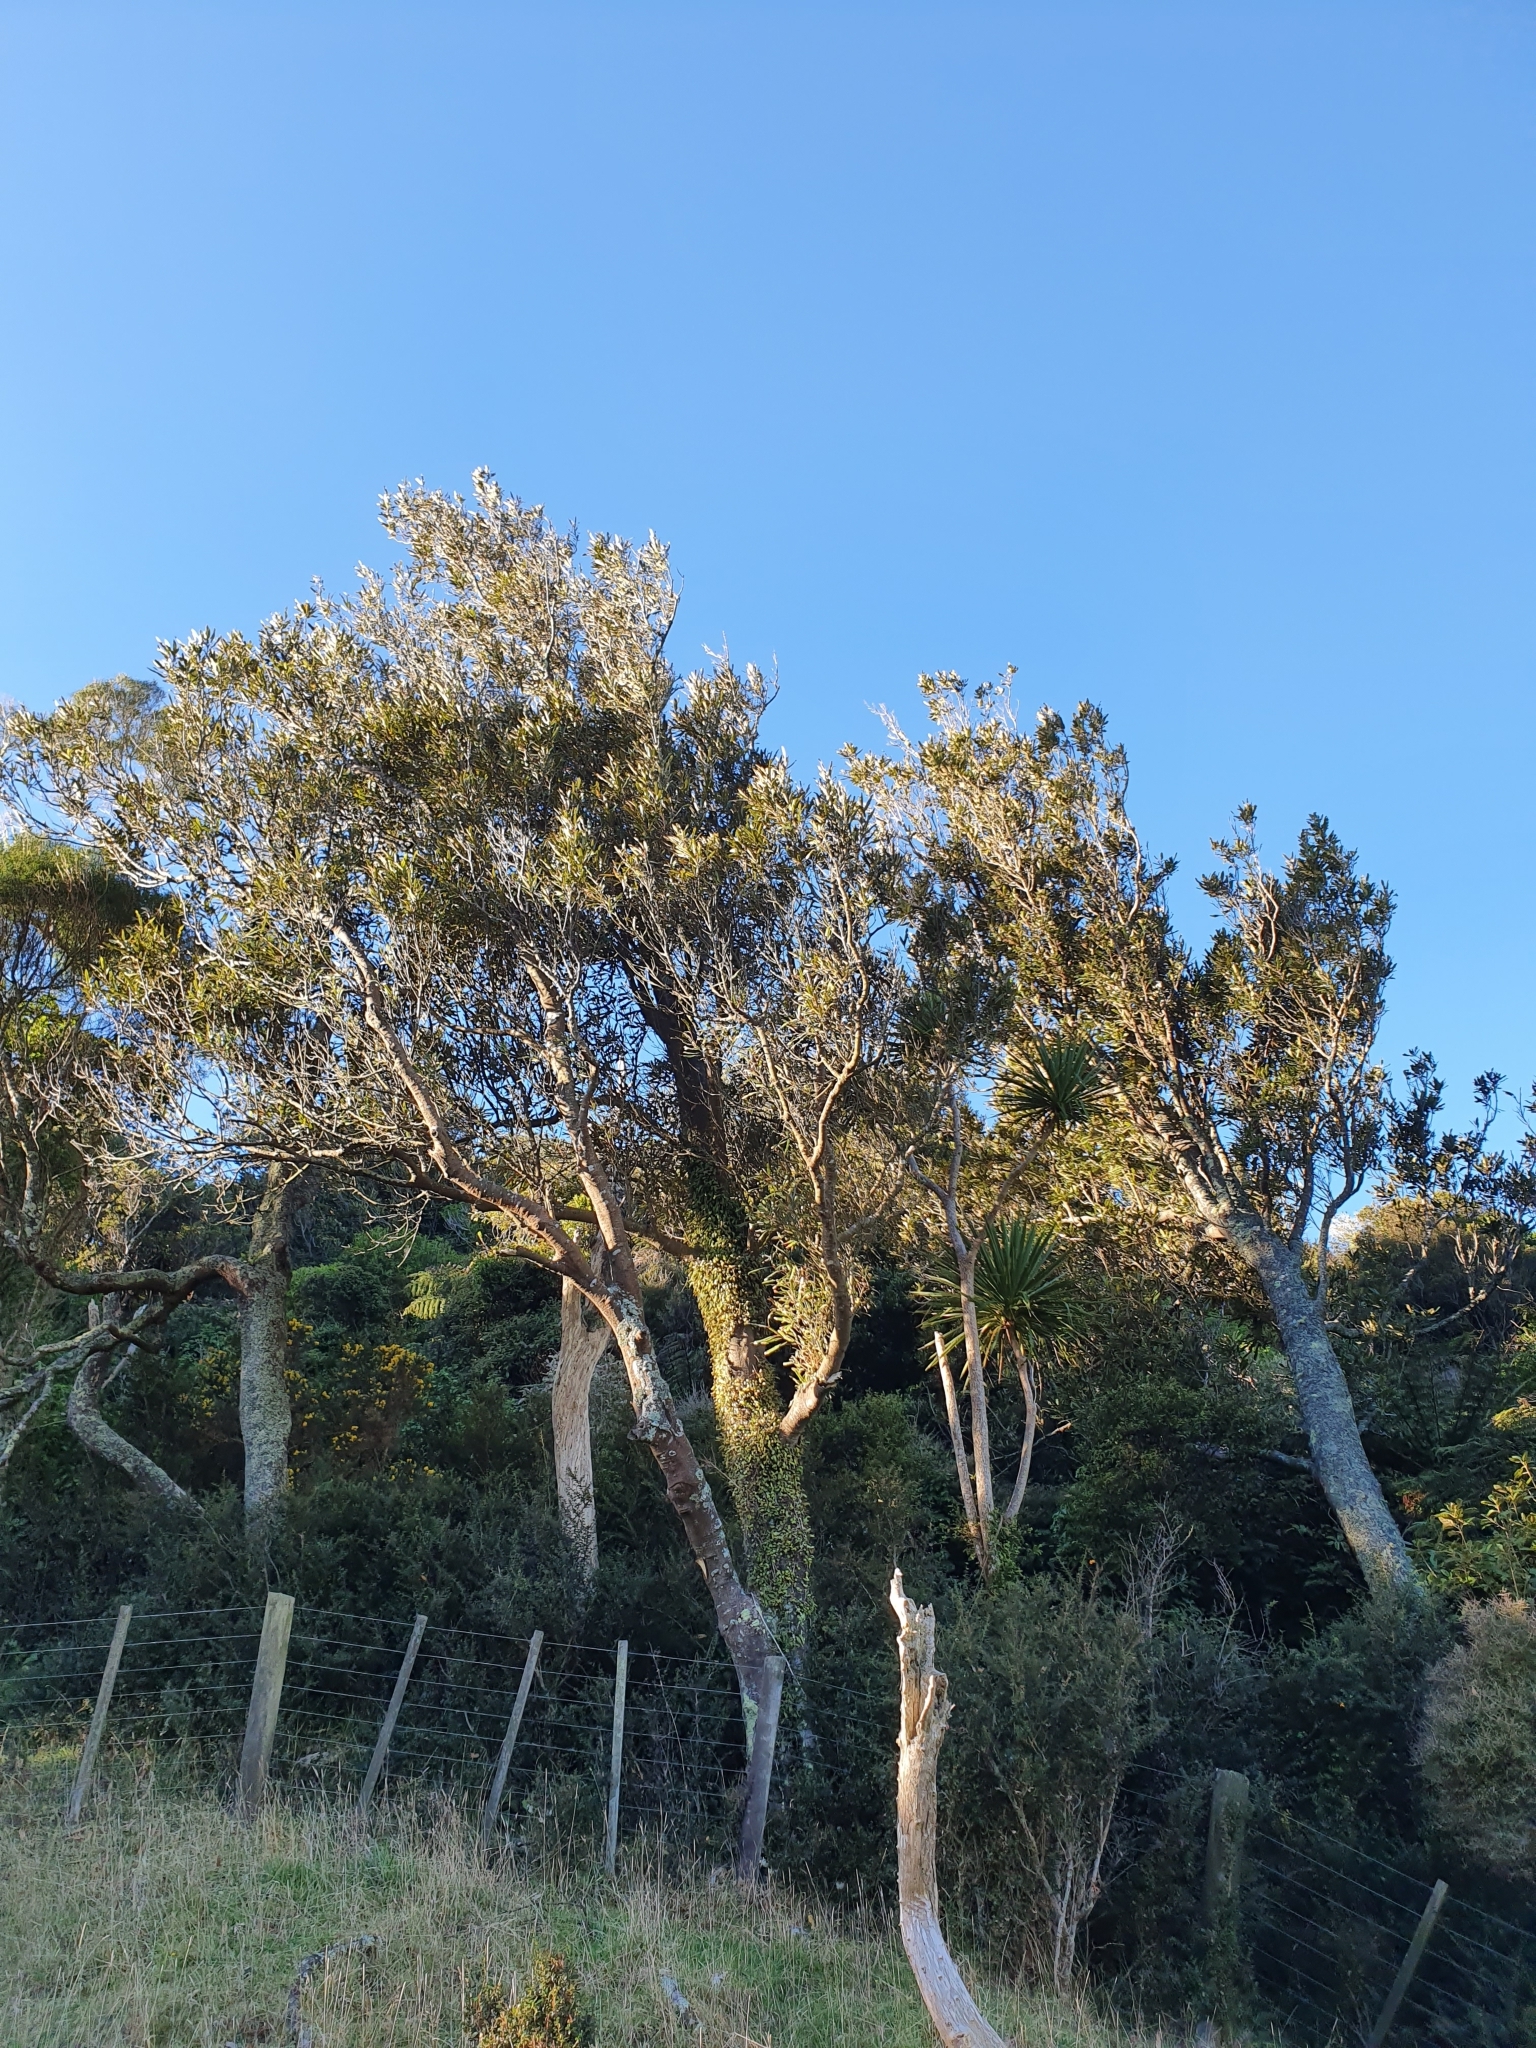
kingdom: Plantae
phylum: Tracheophyta
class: Magnoliopsida
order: Proteales
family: Proteaceae
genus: Knightia
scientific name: Knightia excelsa
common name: New zealand-honeysuckle
